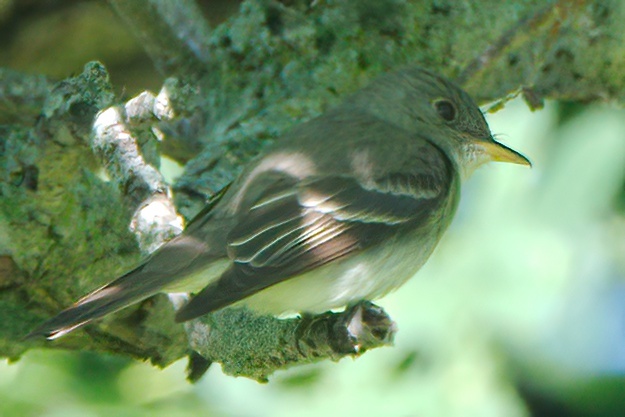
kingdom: Animalia
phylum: Chordata
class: Aves
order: Passeriformes
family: Tyrannidae
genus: Contopus
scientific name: Contopus virens
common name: Eastern wood-pewee
